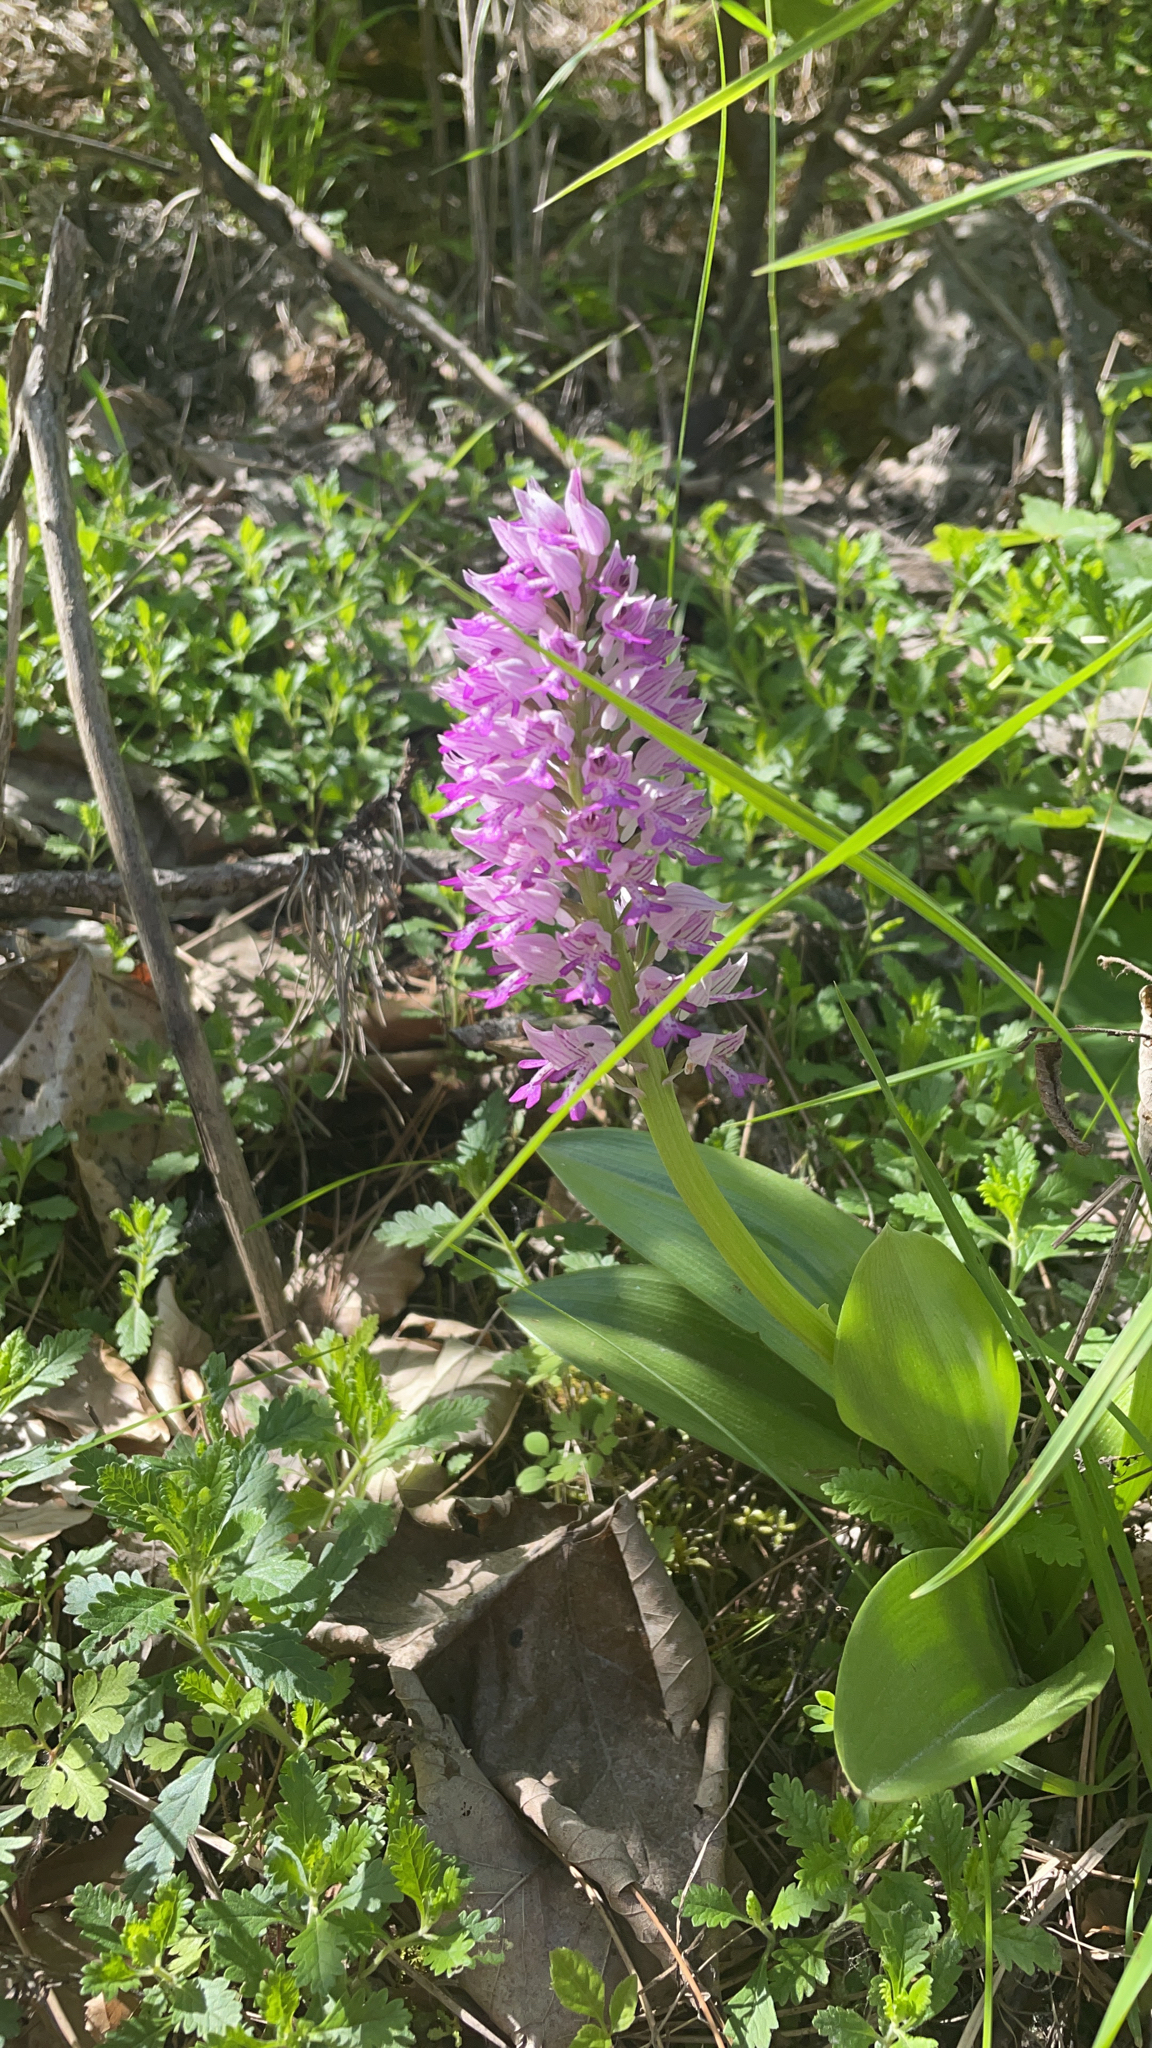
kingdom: Plantae
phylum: Tracheophyta
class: Liliopsida
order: Asparagales
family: Orchidaceae
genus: Orchis
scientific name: Orchis militaris
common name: Military orchid
